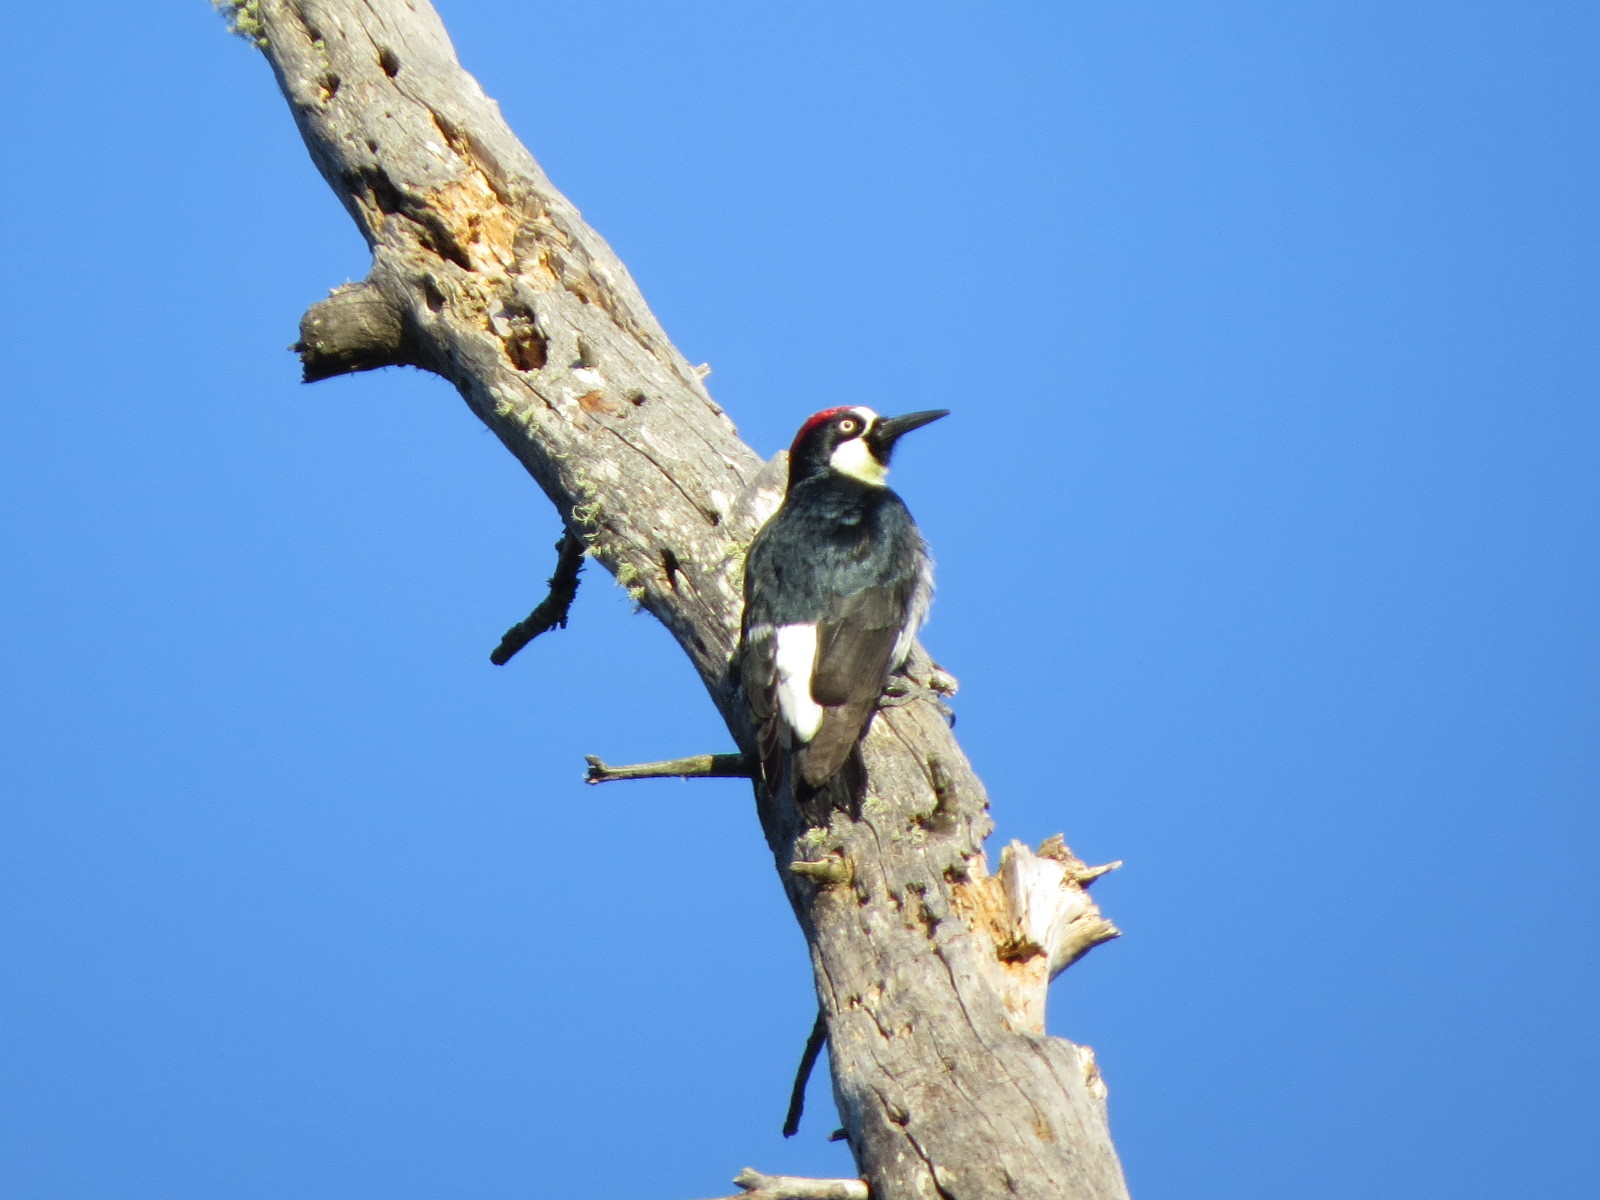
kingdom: Animalia
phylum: Chordata
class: Aves
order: Piciformes
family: Picidae
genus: Melanerpes
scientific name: Melanerpes formicivorus
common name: Acorn woodpecker
